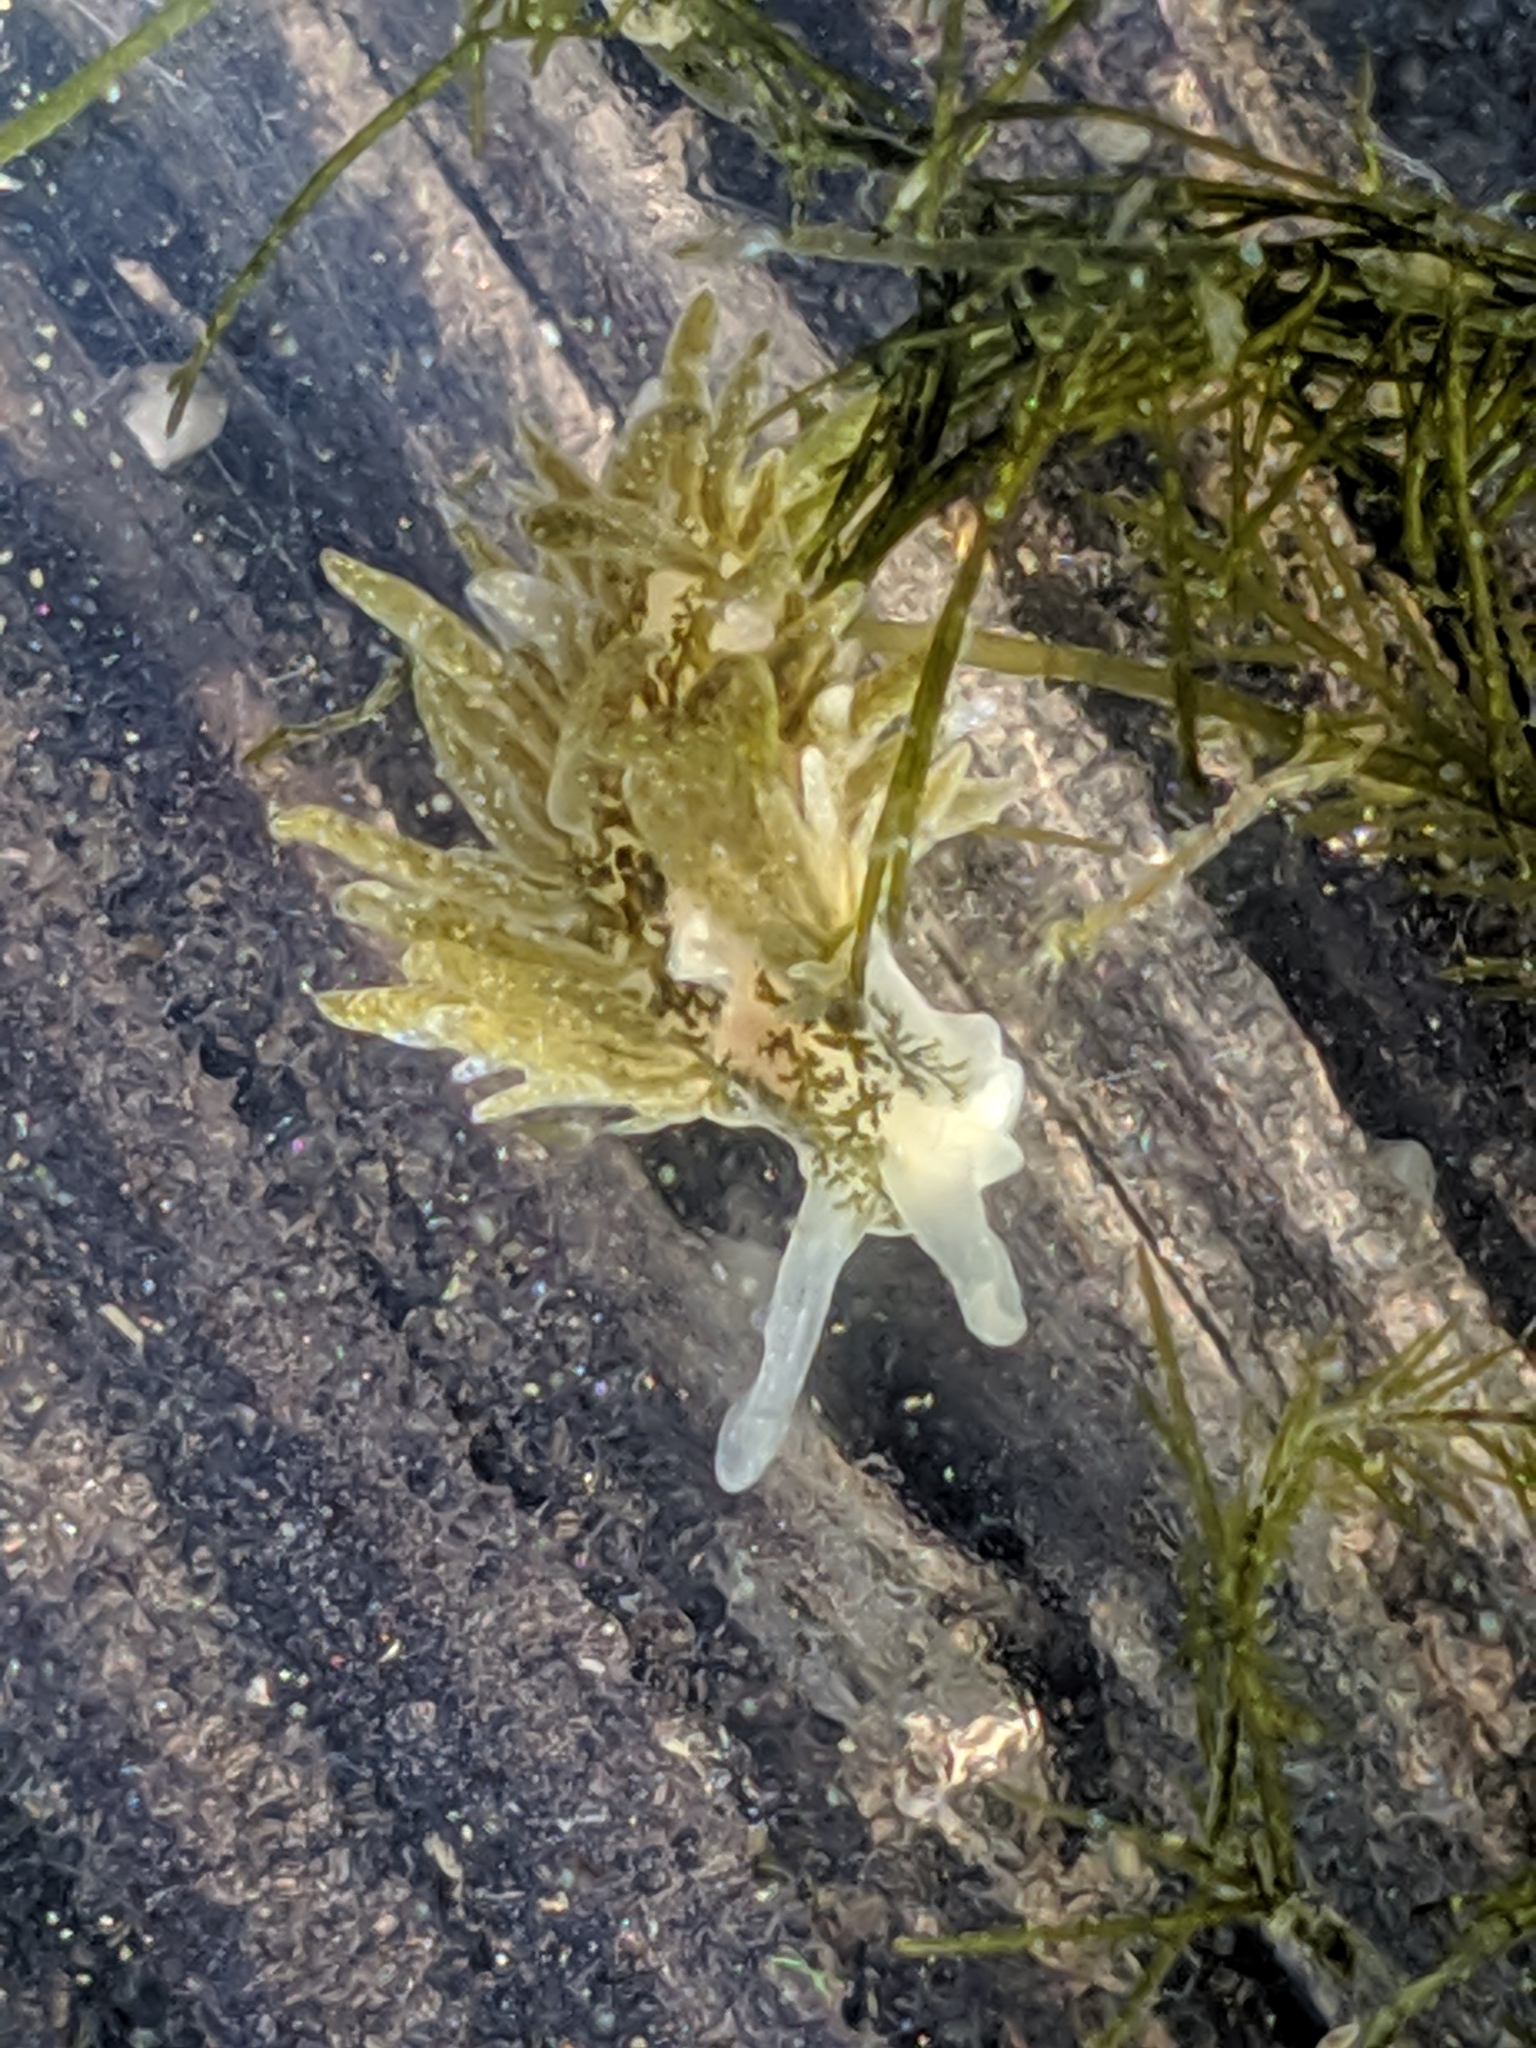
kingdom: Animalia
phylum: Mollusca
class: Gastropoda
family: Limapontiidae
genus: Placida
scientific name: Placida dendritica
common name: Dendritic nudibranch
